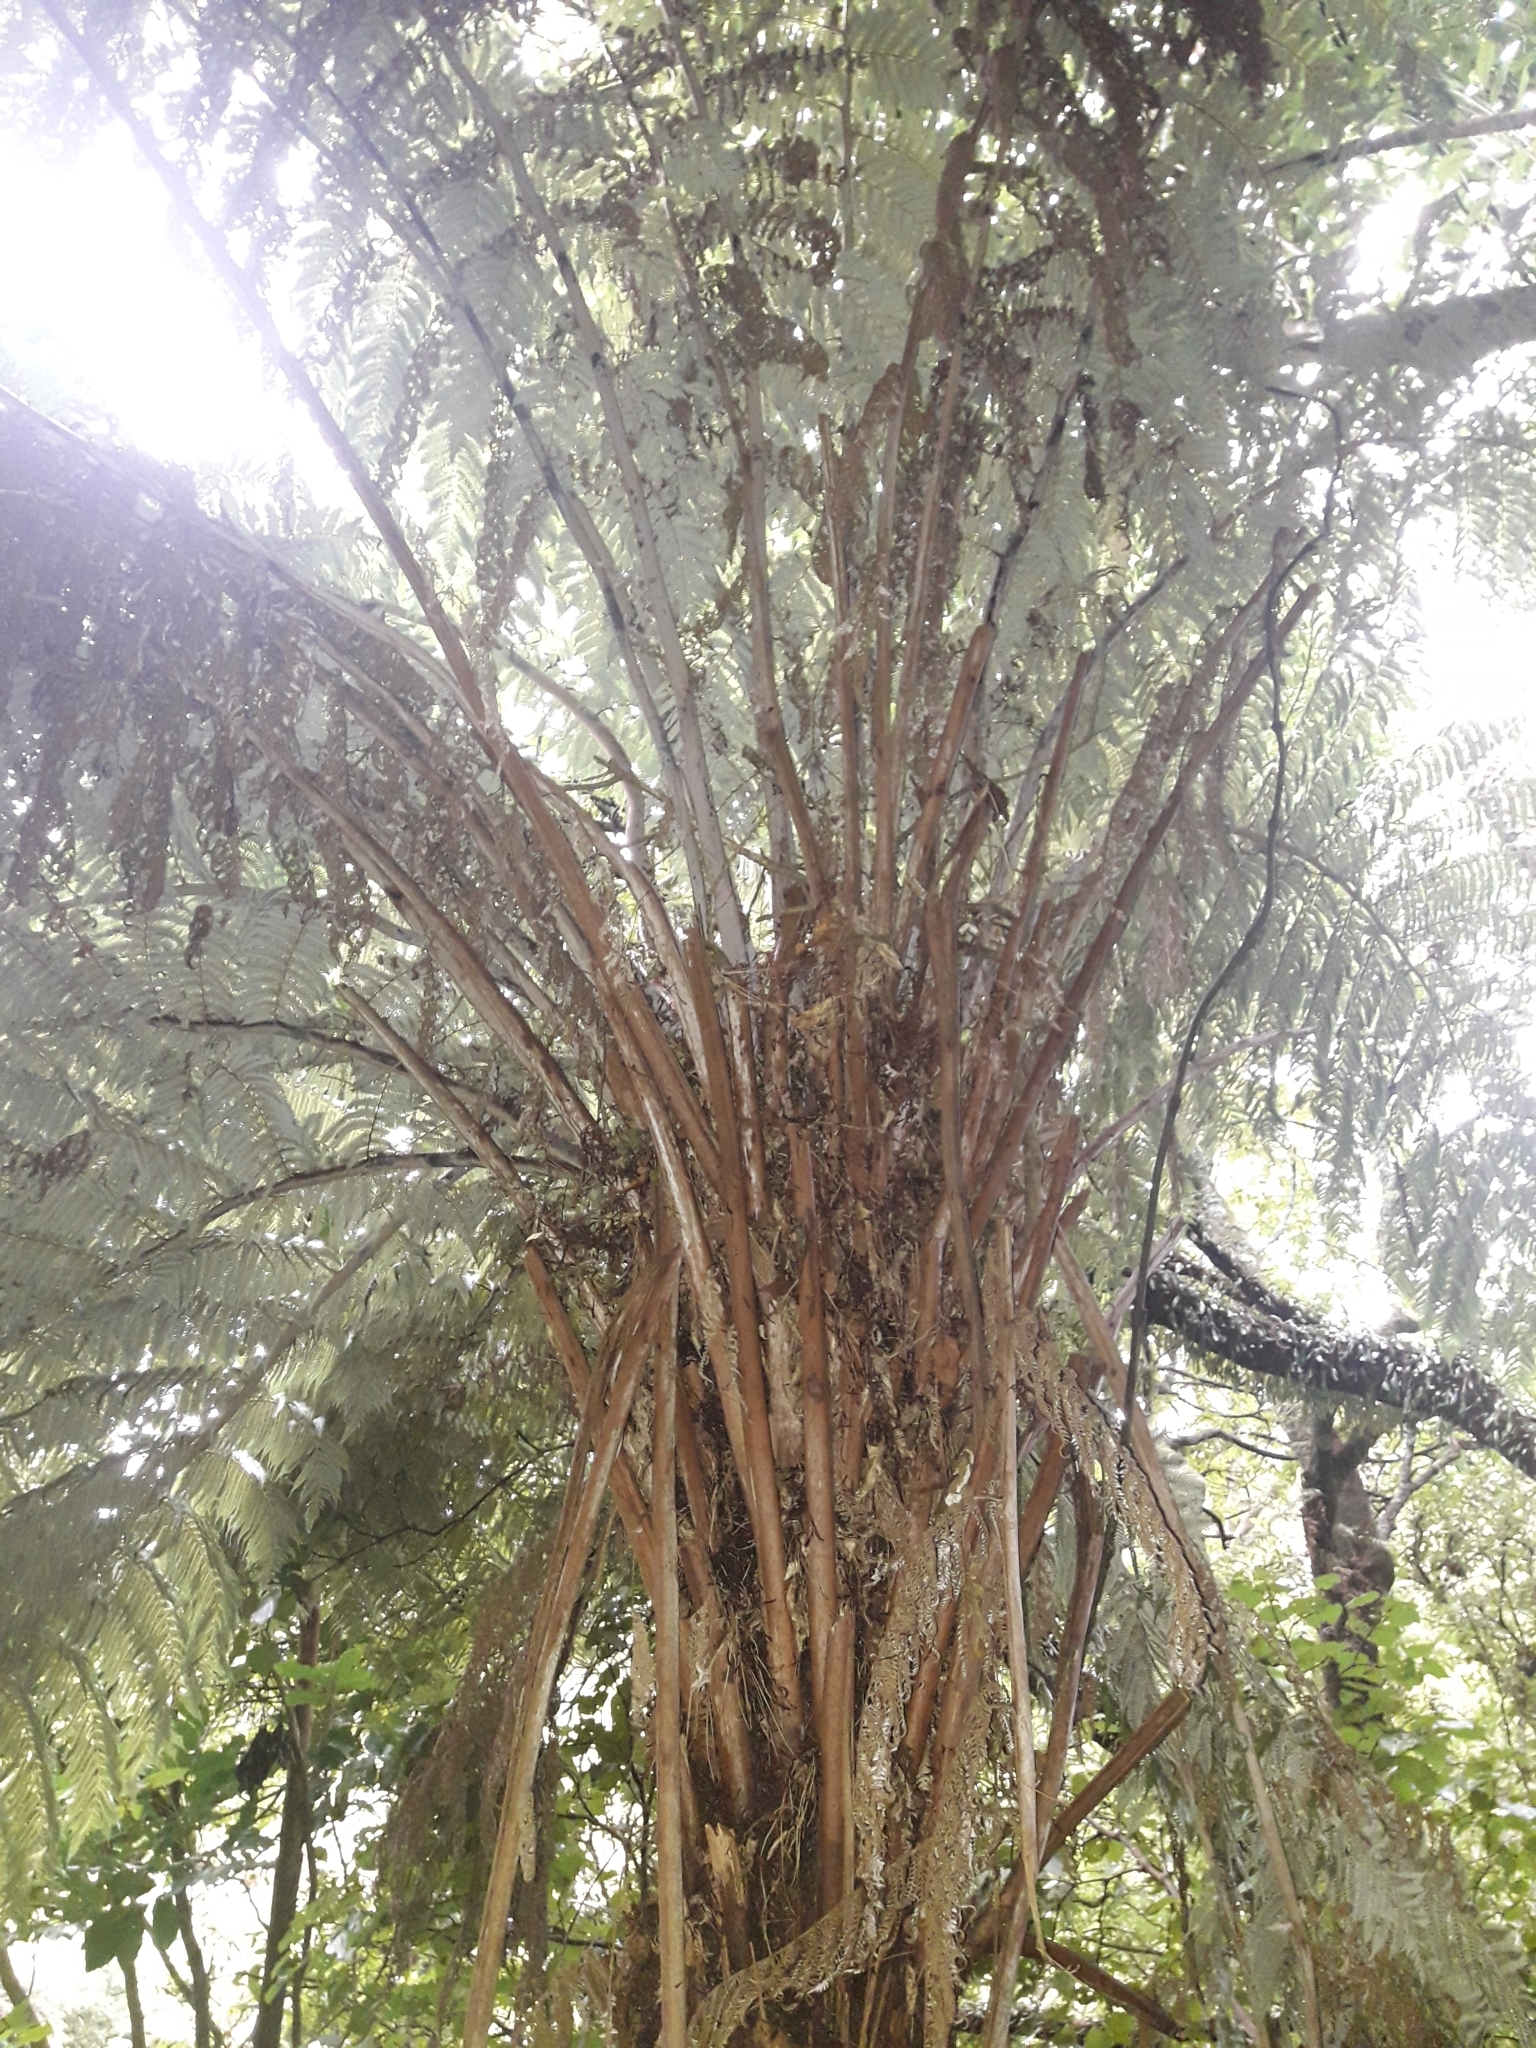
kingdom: Plantae
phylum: Tracheophyta
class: Polypodiopsida
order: Cyatheales
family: Cyatheaceae
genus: Alsophila
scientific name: Alsophila dealbata
